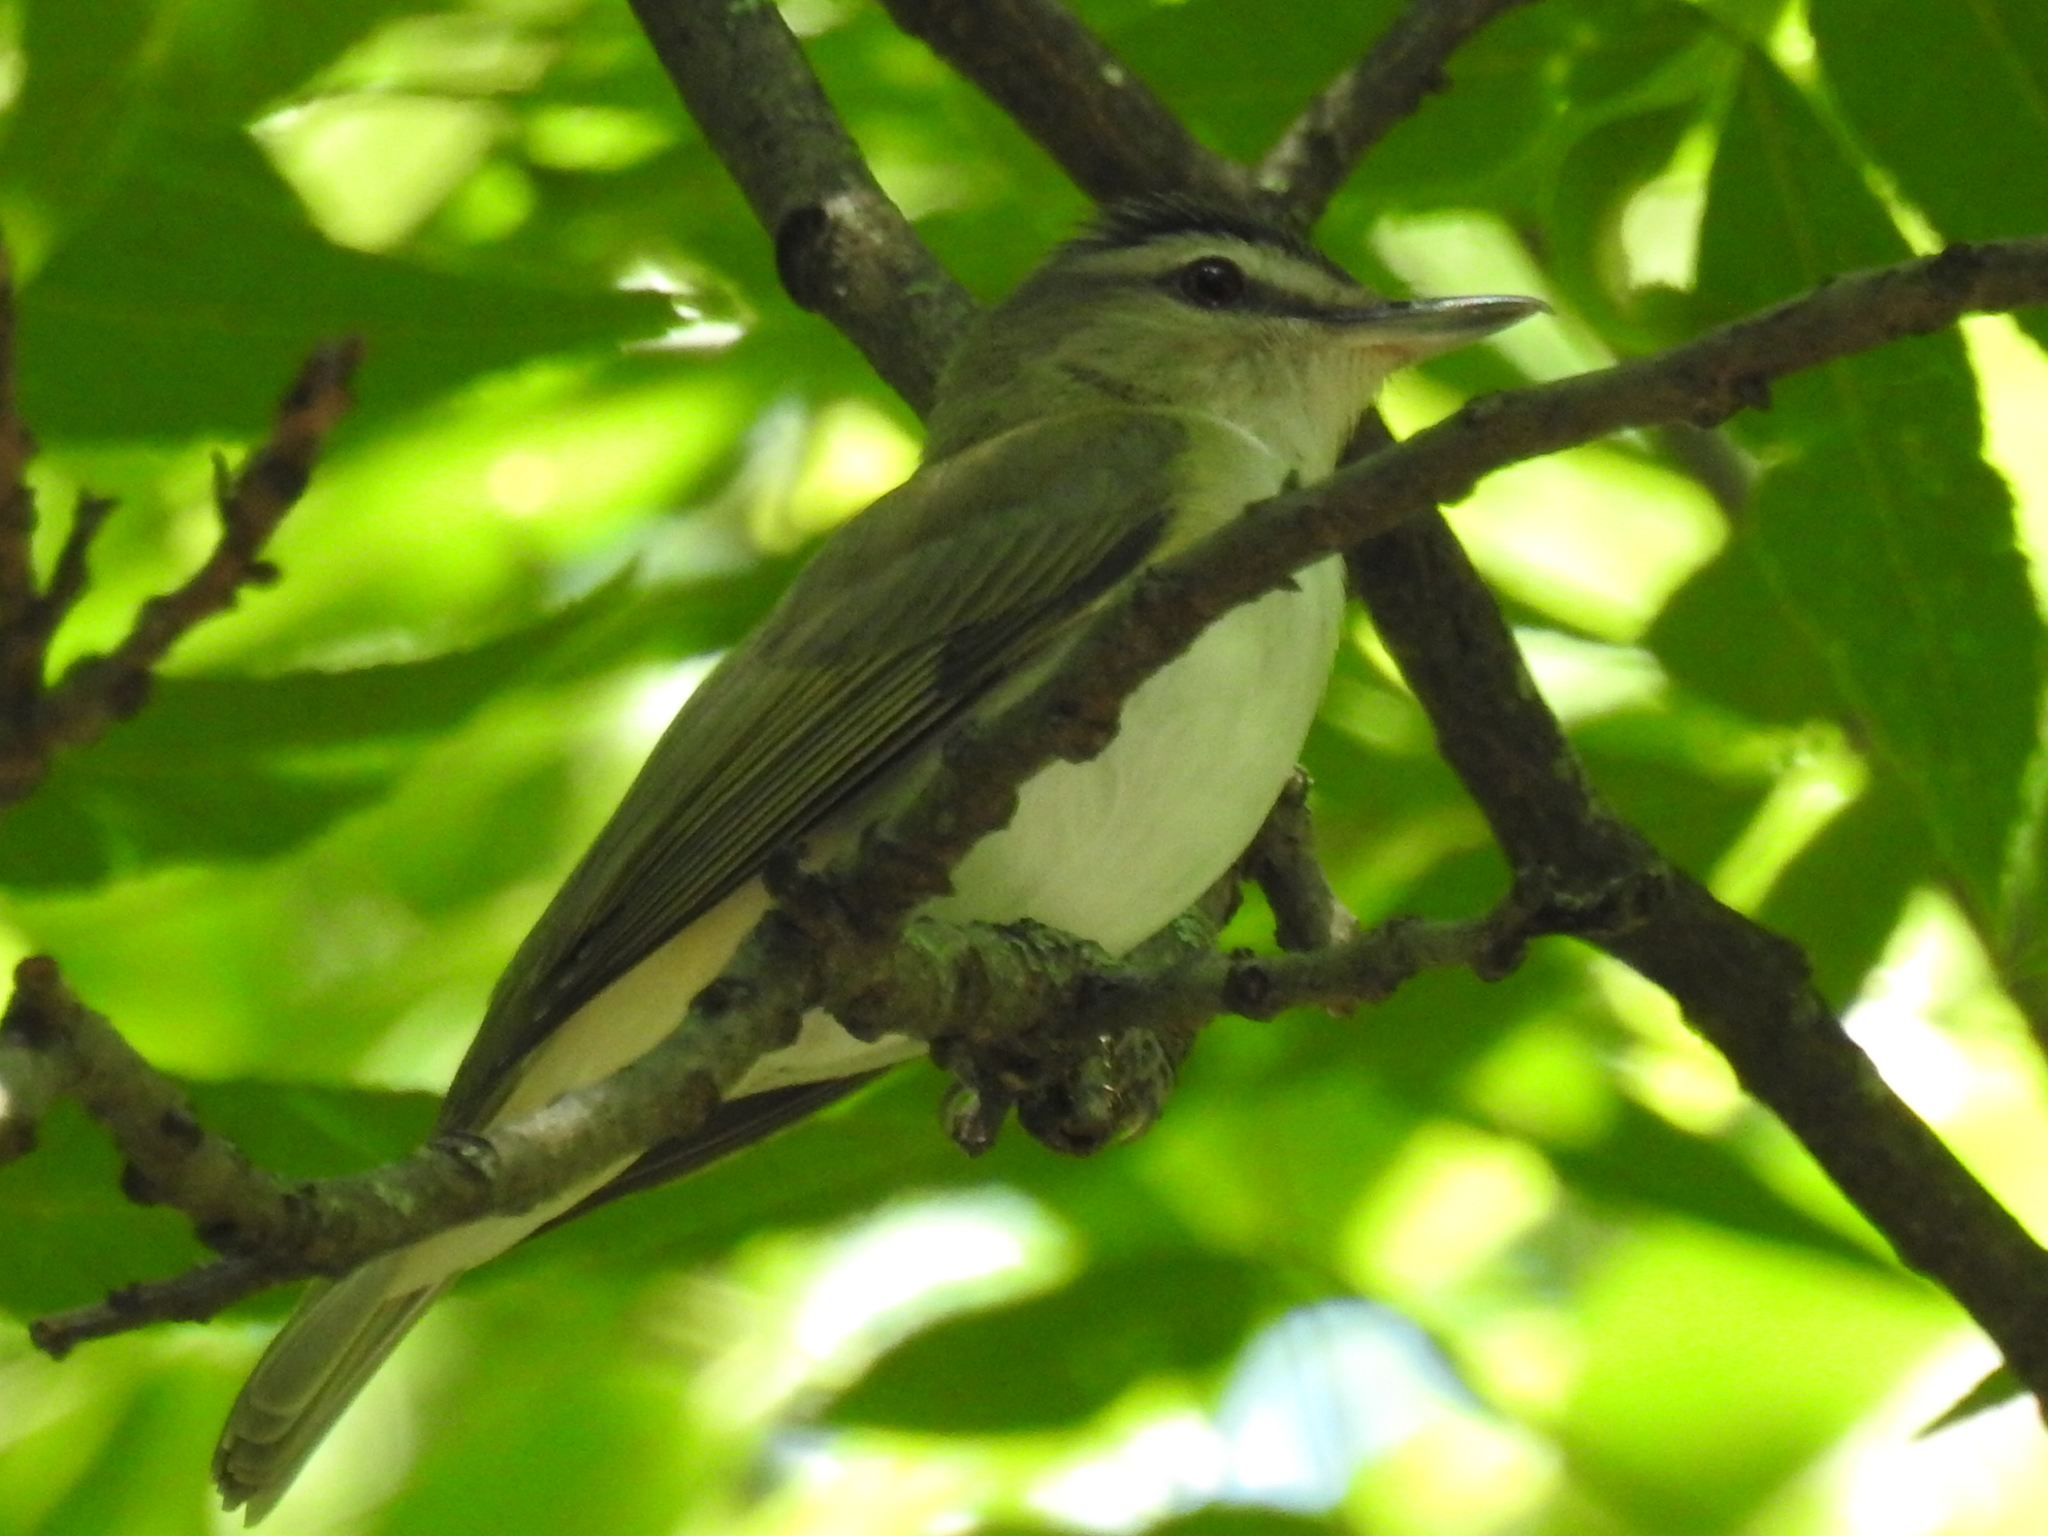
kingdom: Animalia
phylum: Chordata
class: Aves
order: Passeriformes
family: Vireonidae
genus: Vireo
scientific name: Vireo olivaceus
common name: Red-eyed vireo
